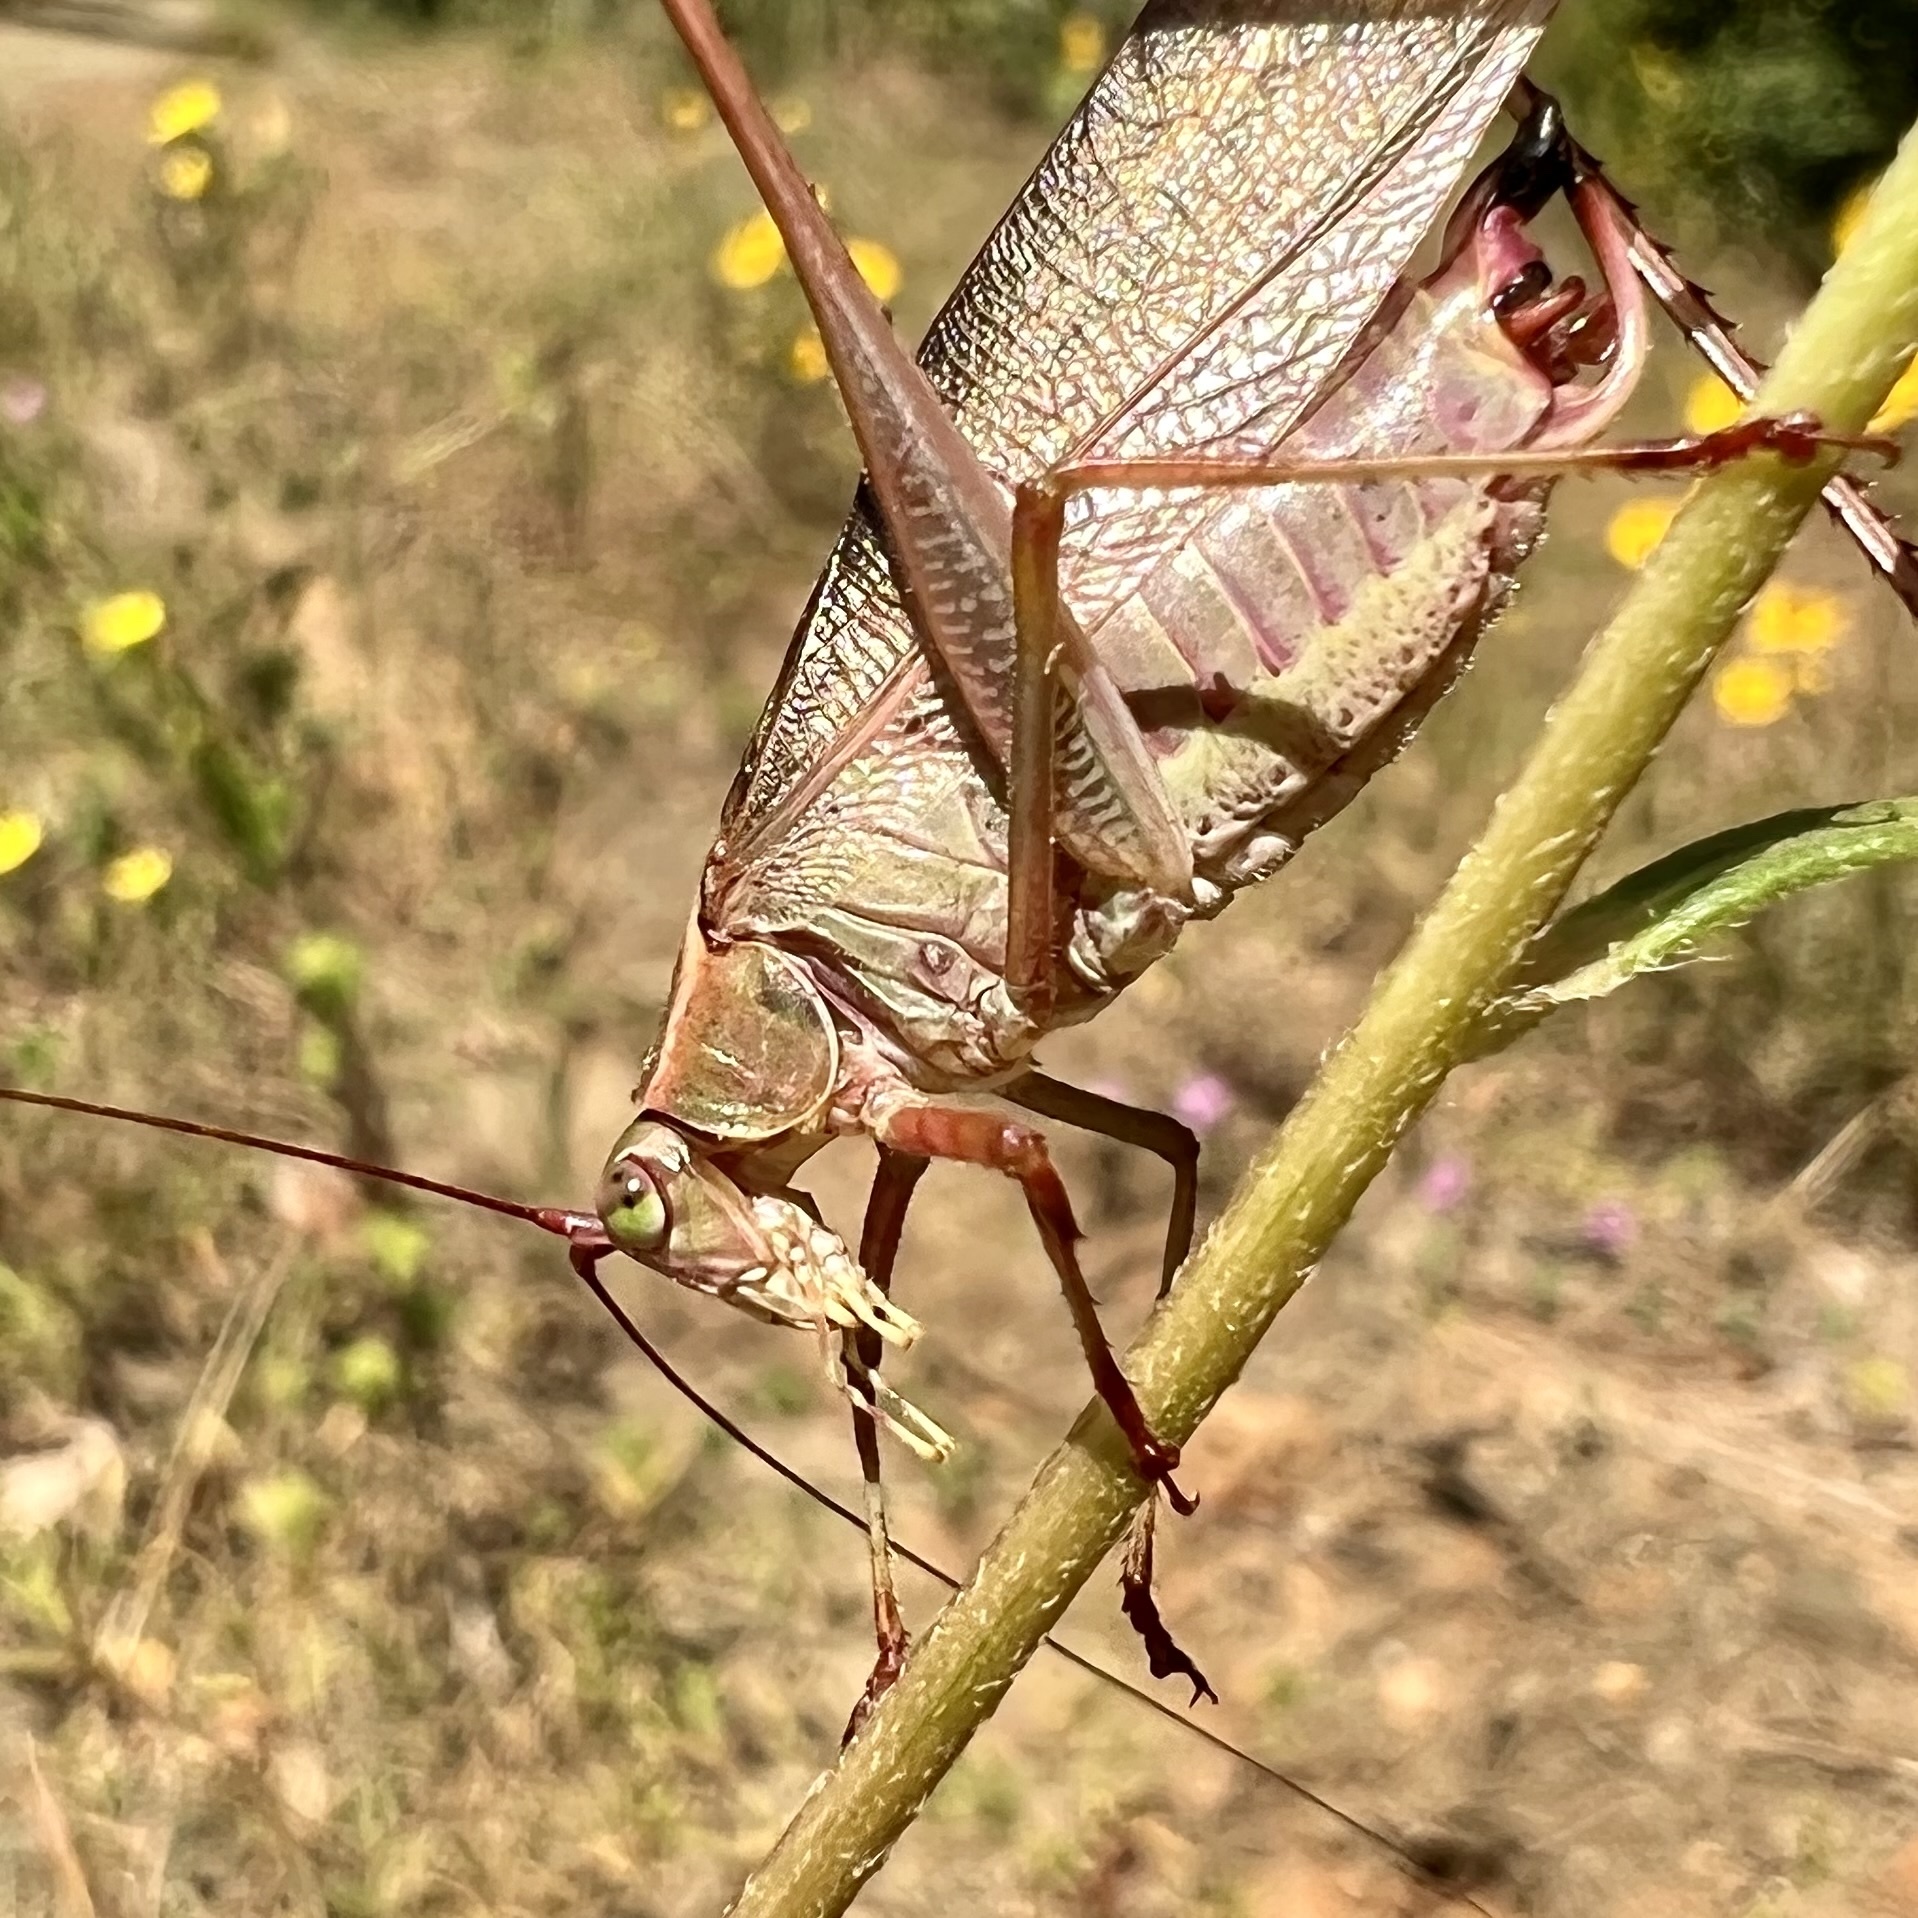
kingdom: Animalia
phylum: Arthropoda
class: Insecta
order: Orthoptera
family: Tettigoniidae
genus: Scudderia
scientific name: Scudderia furcata
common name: Fork-tailed bush katydid
